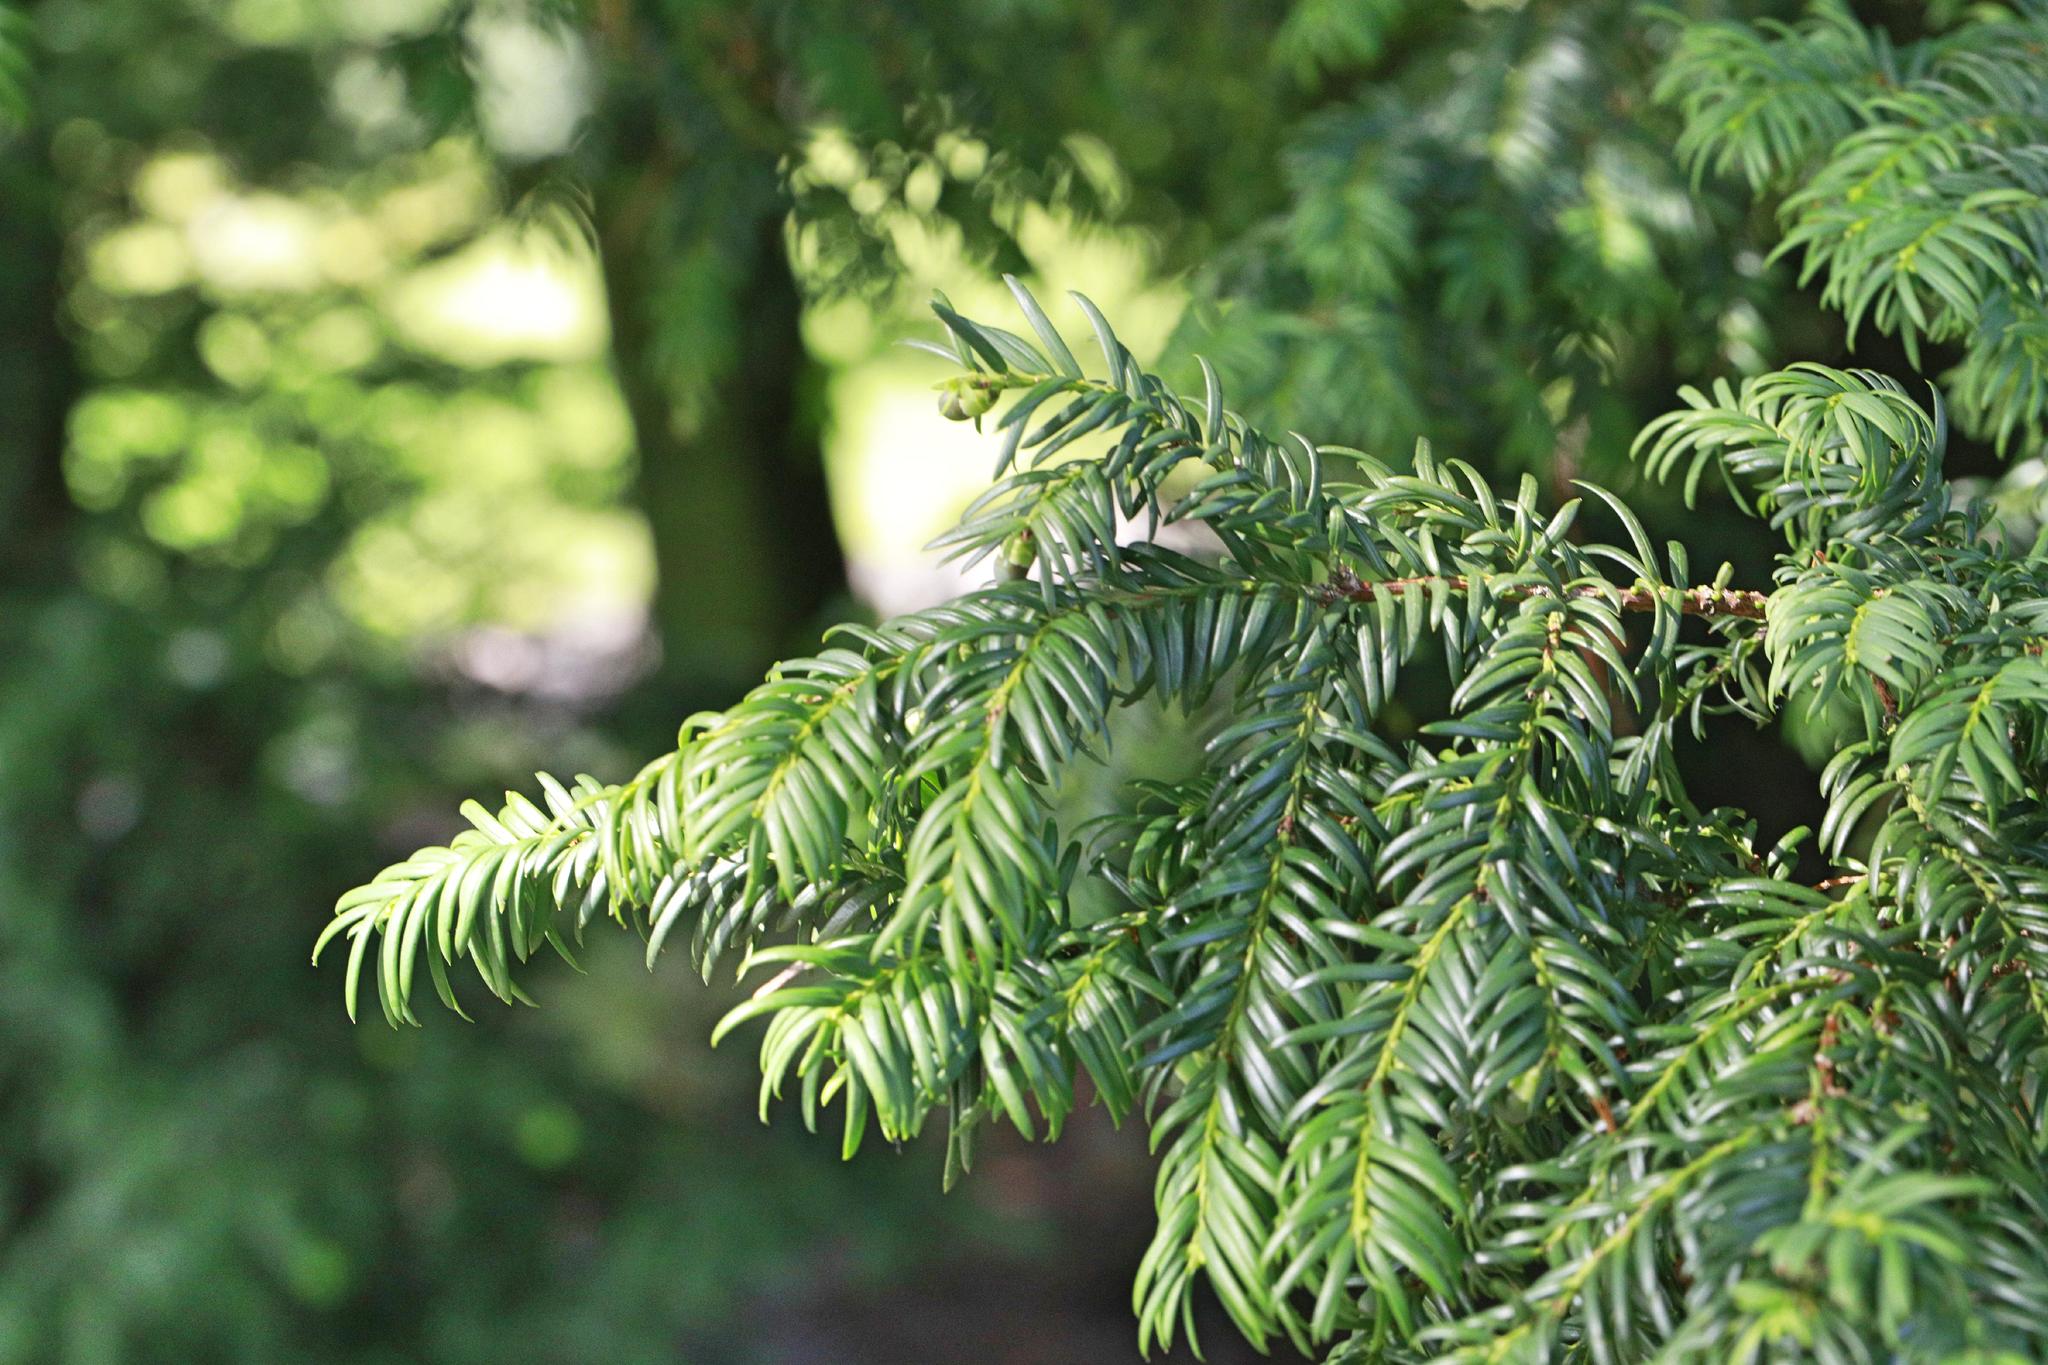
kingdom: Plantae
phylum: Tracheophyta
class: Pinopsida
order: Pinales
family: Taxaceae
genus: Taxus
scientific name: Taxus baccata
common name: Yew
